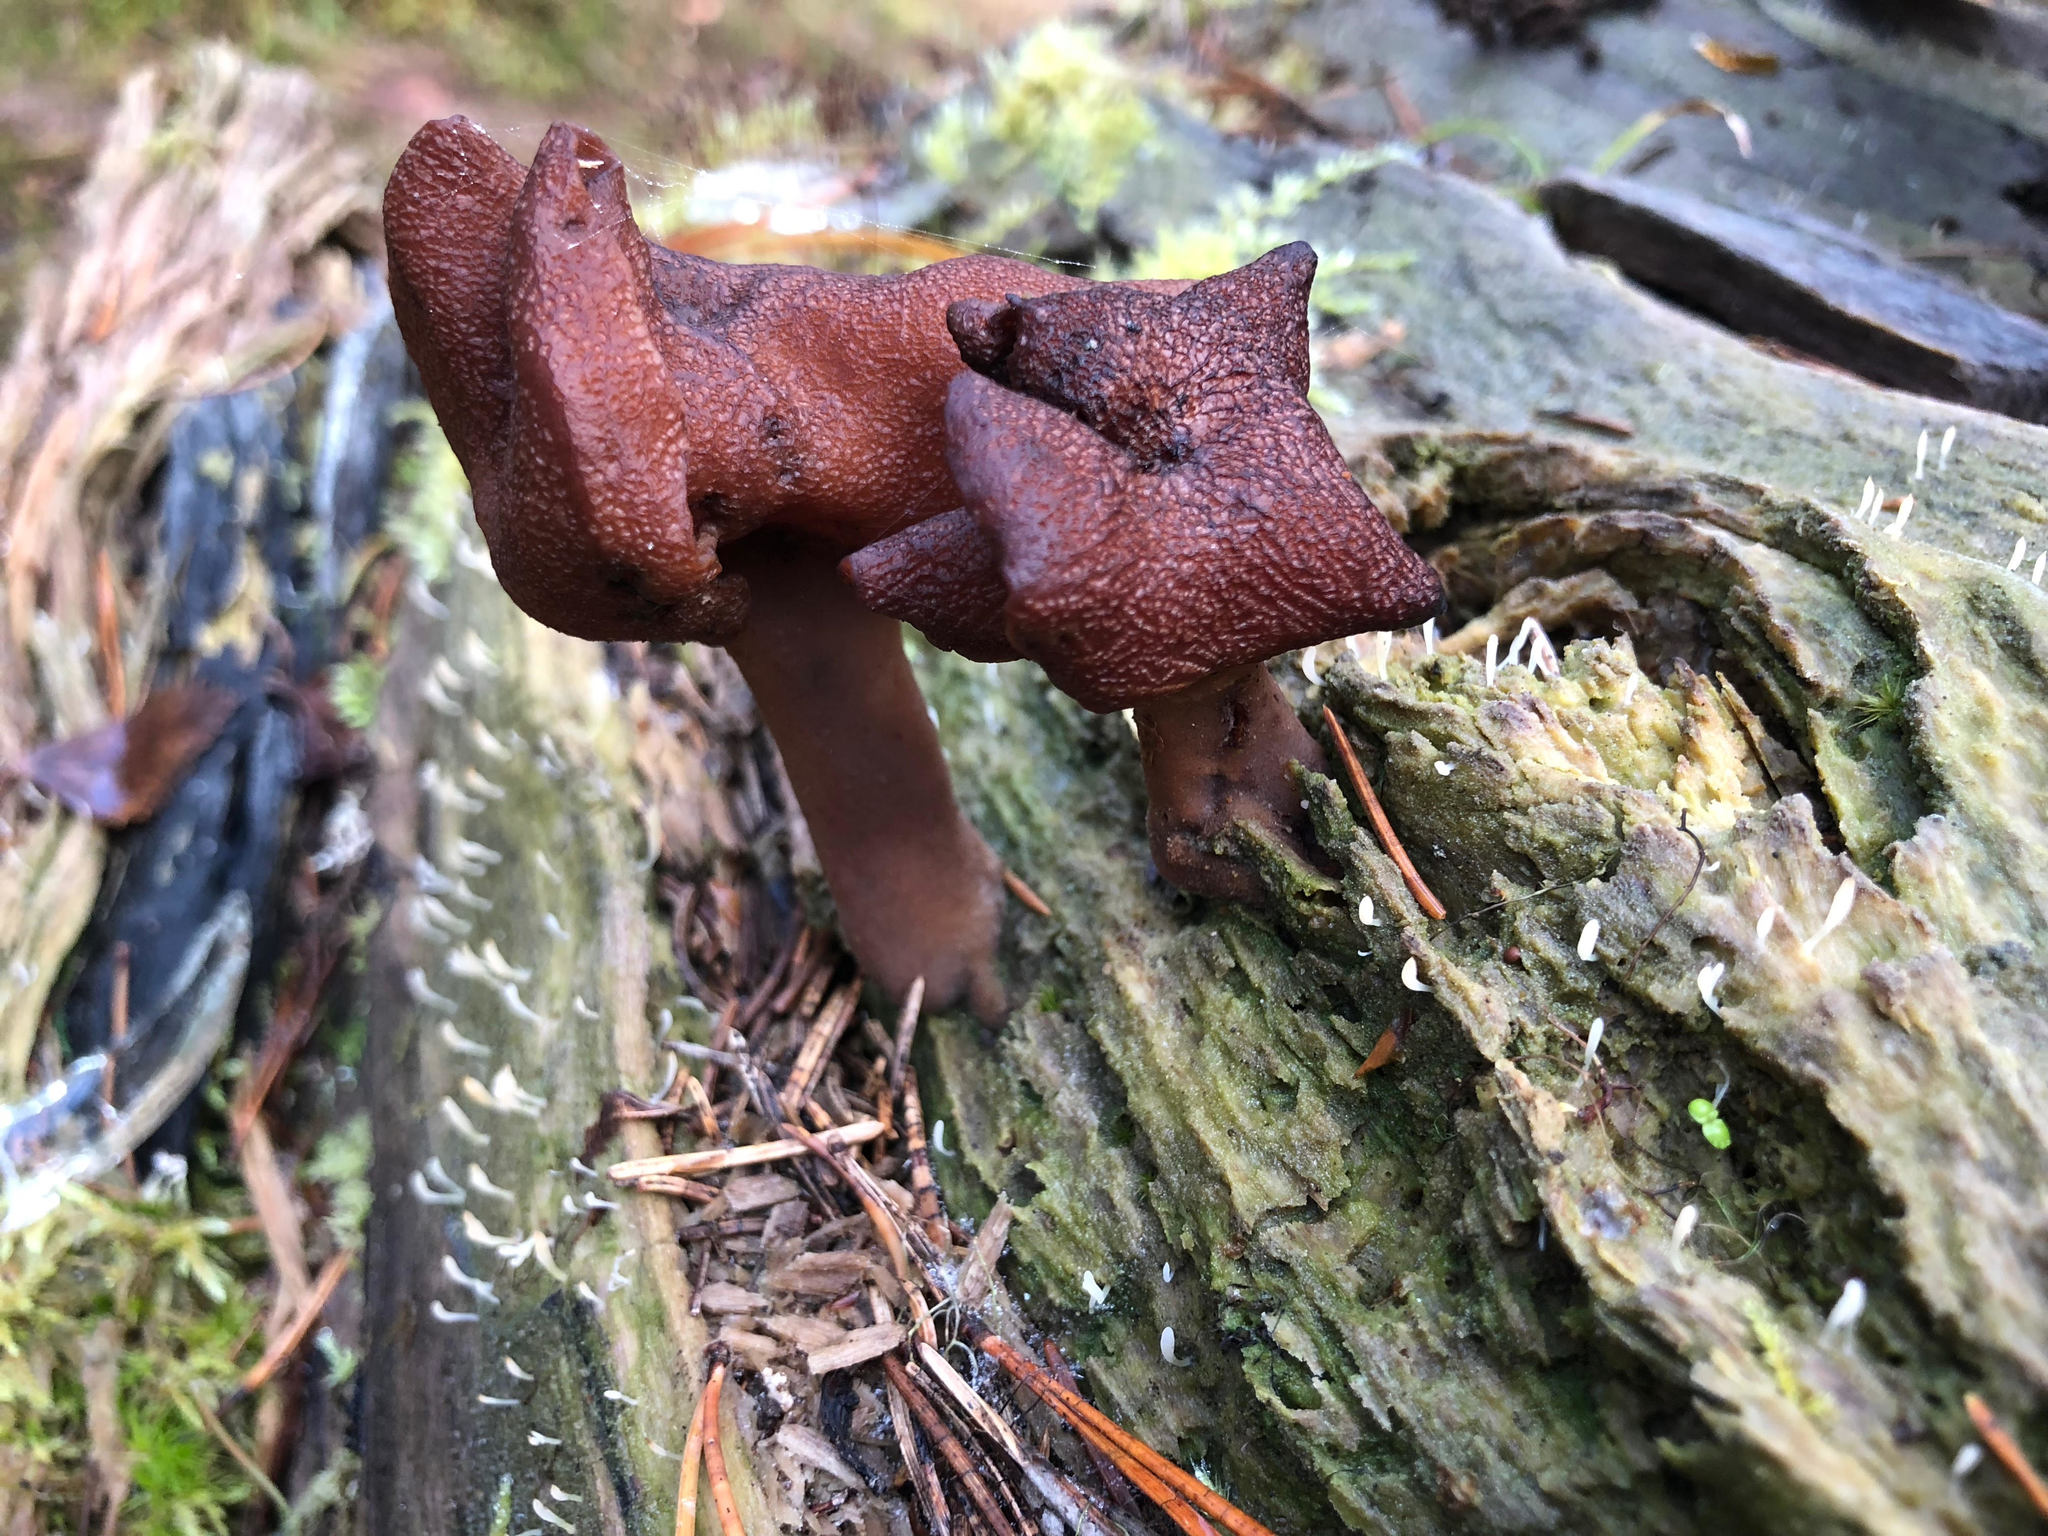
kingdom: Fungi
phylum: Ascomycota
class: Pezizomycetes
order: Pezizales
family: Discinaceae
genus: Gyromitra
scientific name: Gyromitra infula
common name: Pouched false morel
